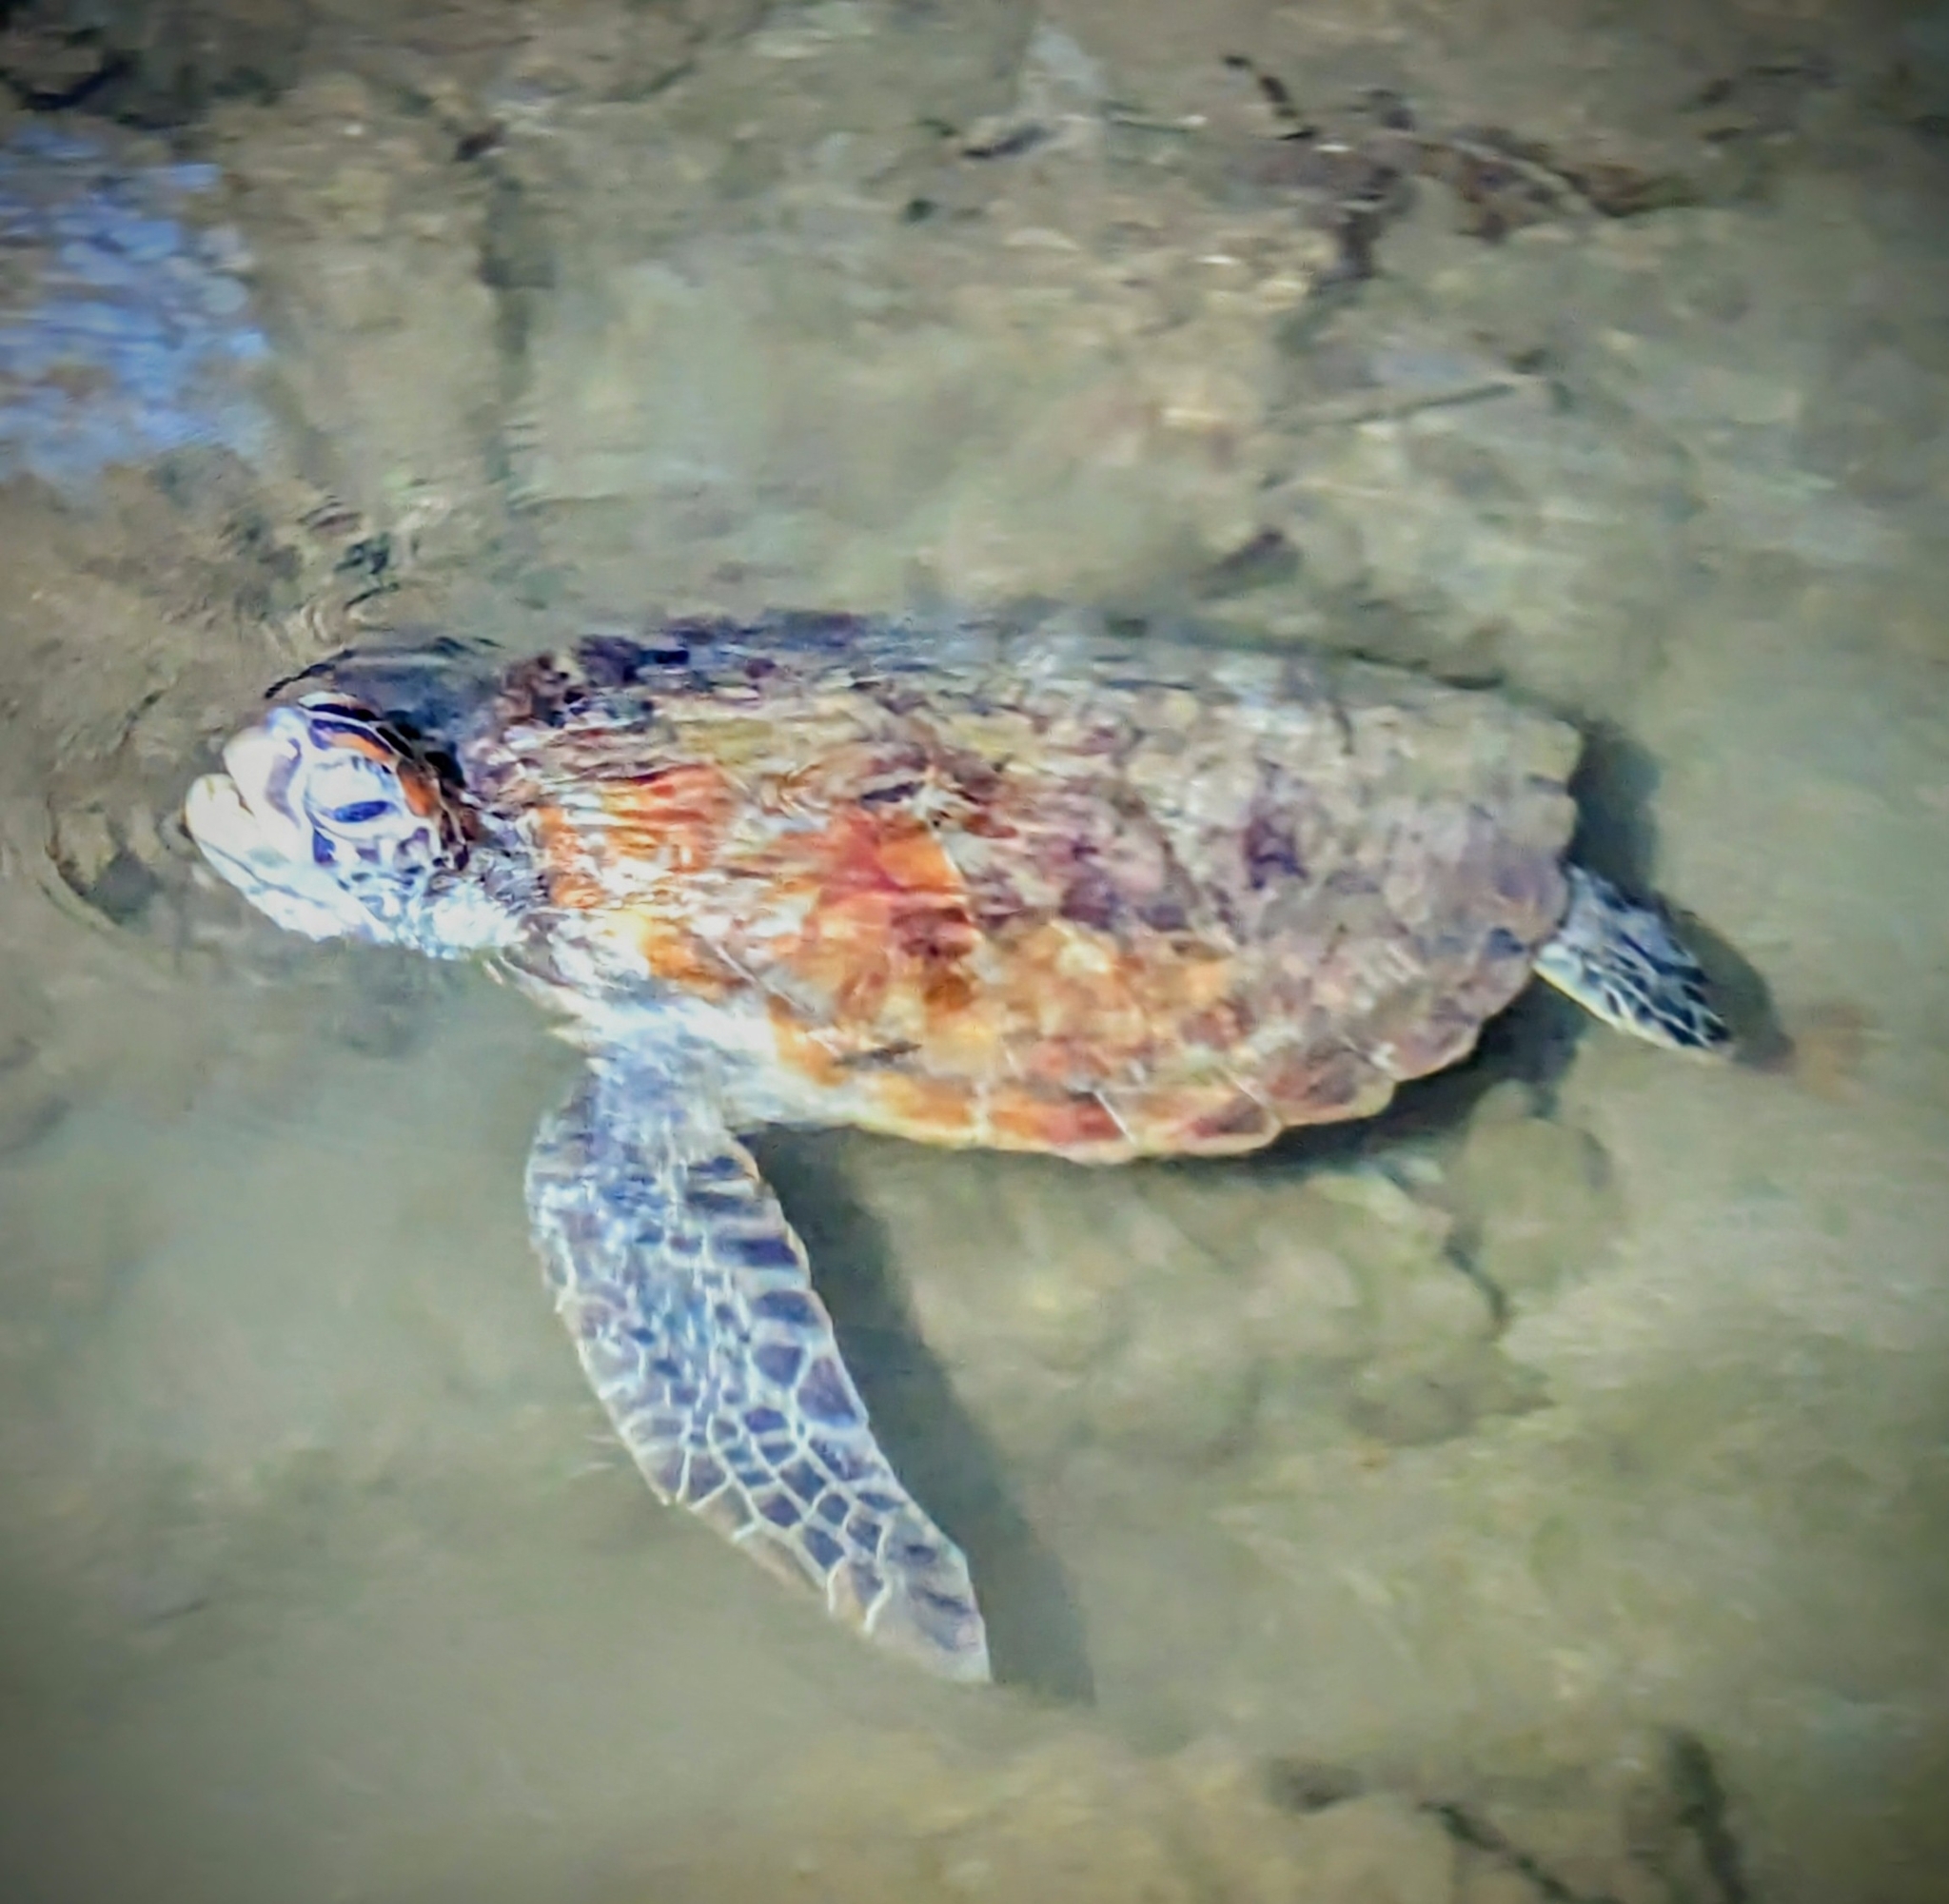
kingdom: Animalia
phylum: Chordata
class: Testudines
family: Cheloniidae
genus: Chelonia
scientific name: Chelonia mydas
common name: Green turtle
